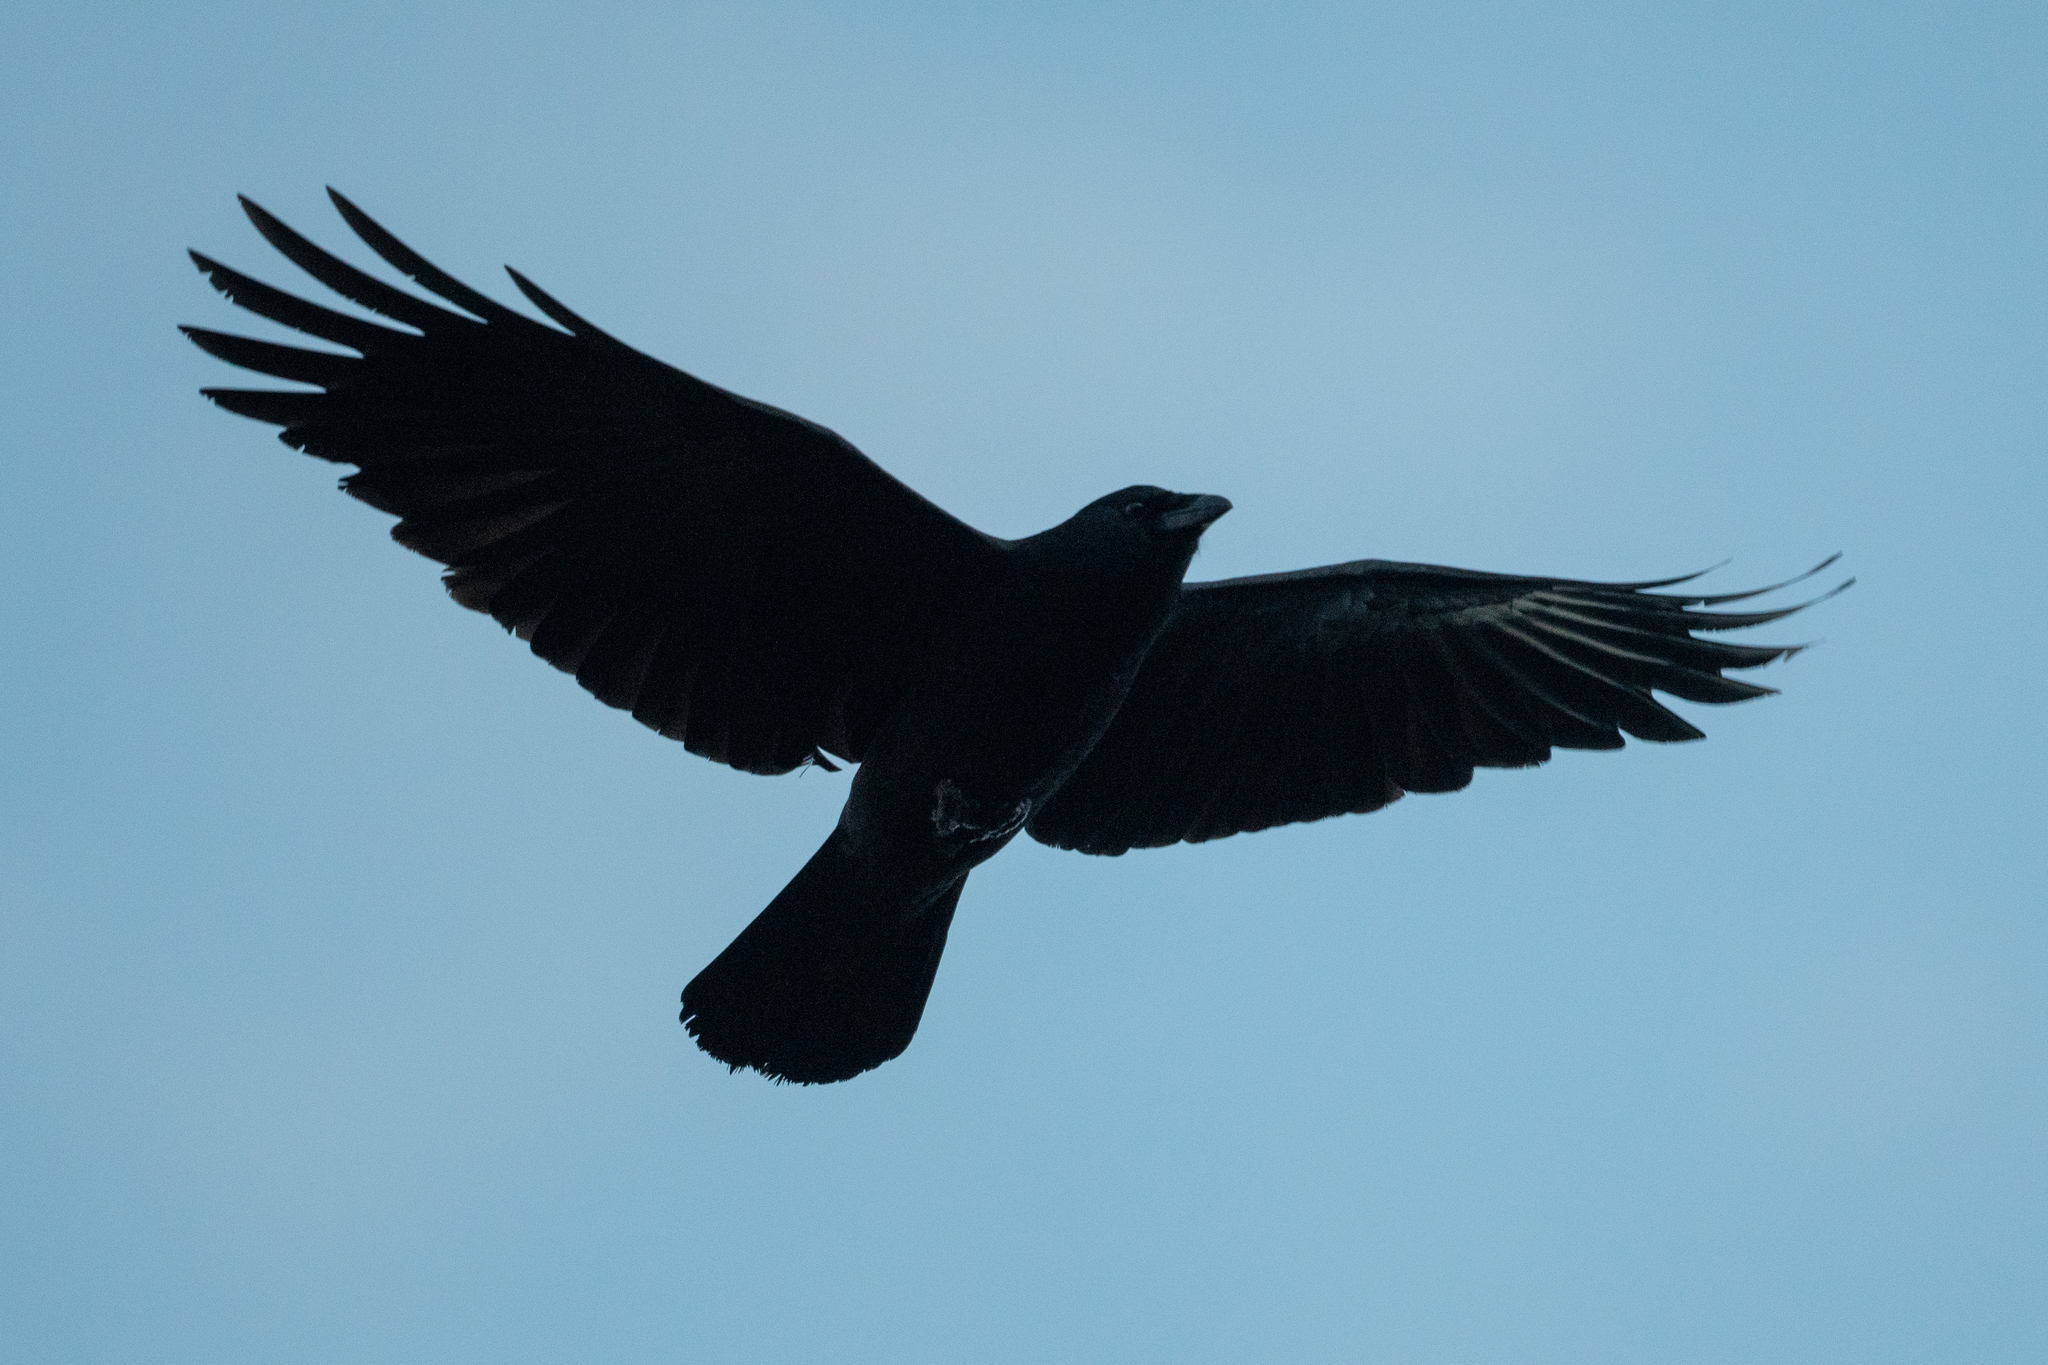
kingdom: Animalia
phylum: Chordata
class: Aves
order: Passeriformes
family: Corvidae
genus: Corvus
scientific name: Corvus brachyrhynchos
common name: American crow
